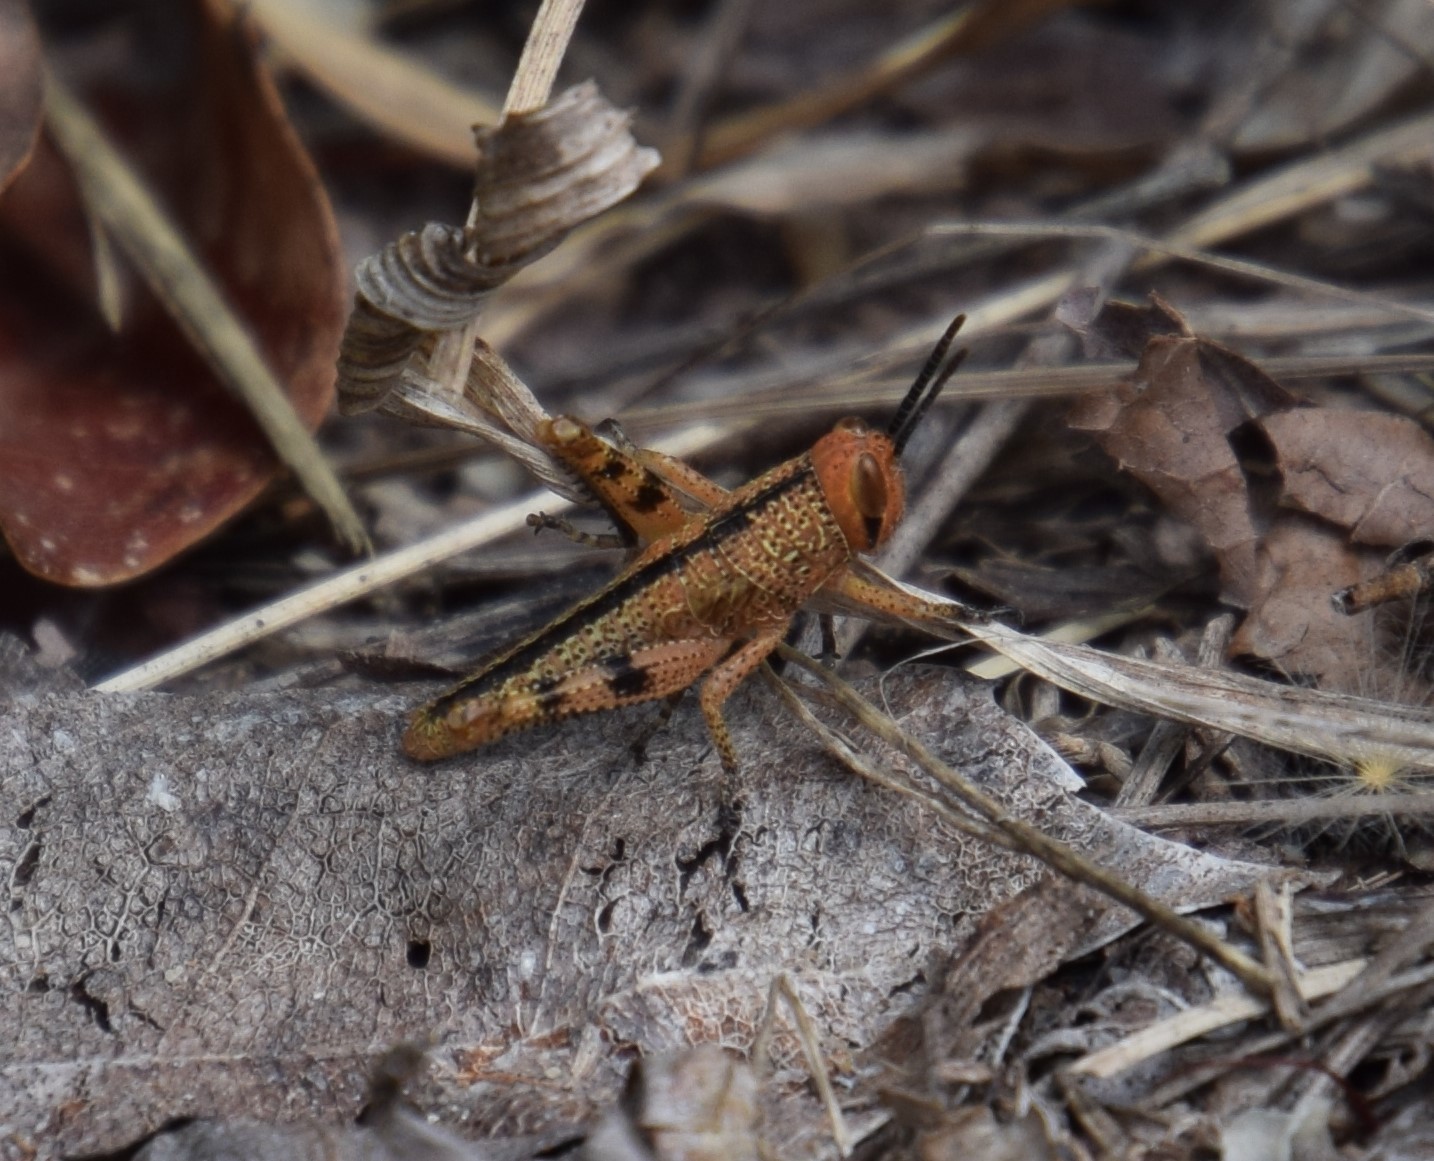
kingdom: Animalia
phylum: Arthropoda
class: Insecta
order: Orthoptera
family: Acrididae
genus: Valanga
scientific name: Valanga irregularis
